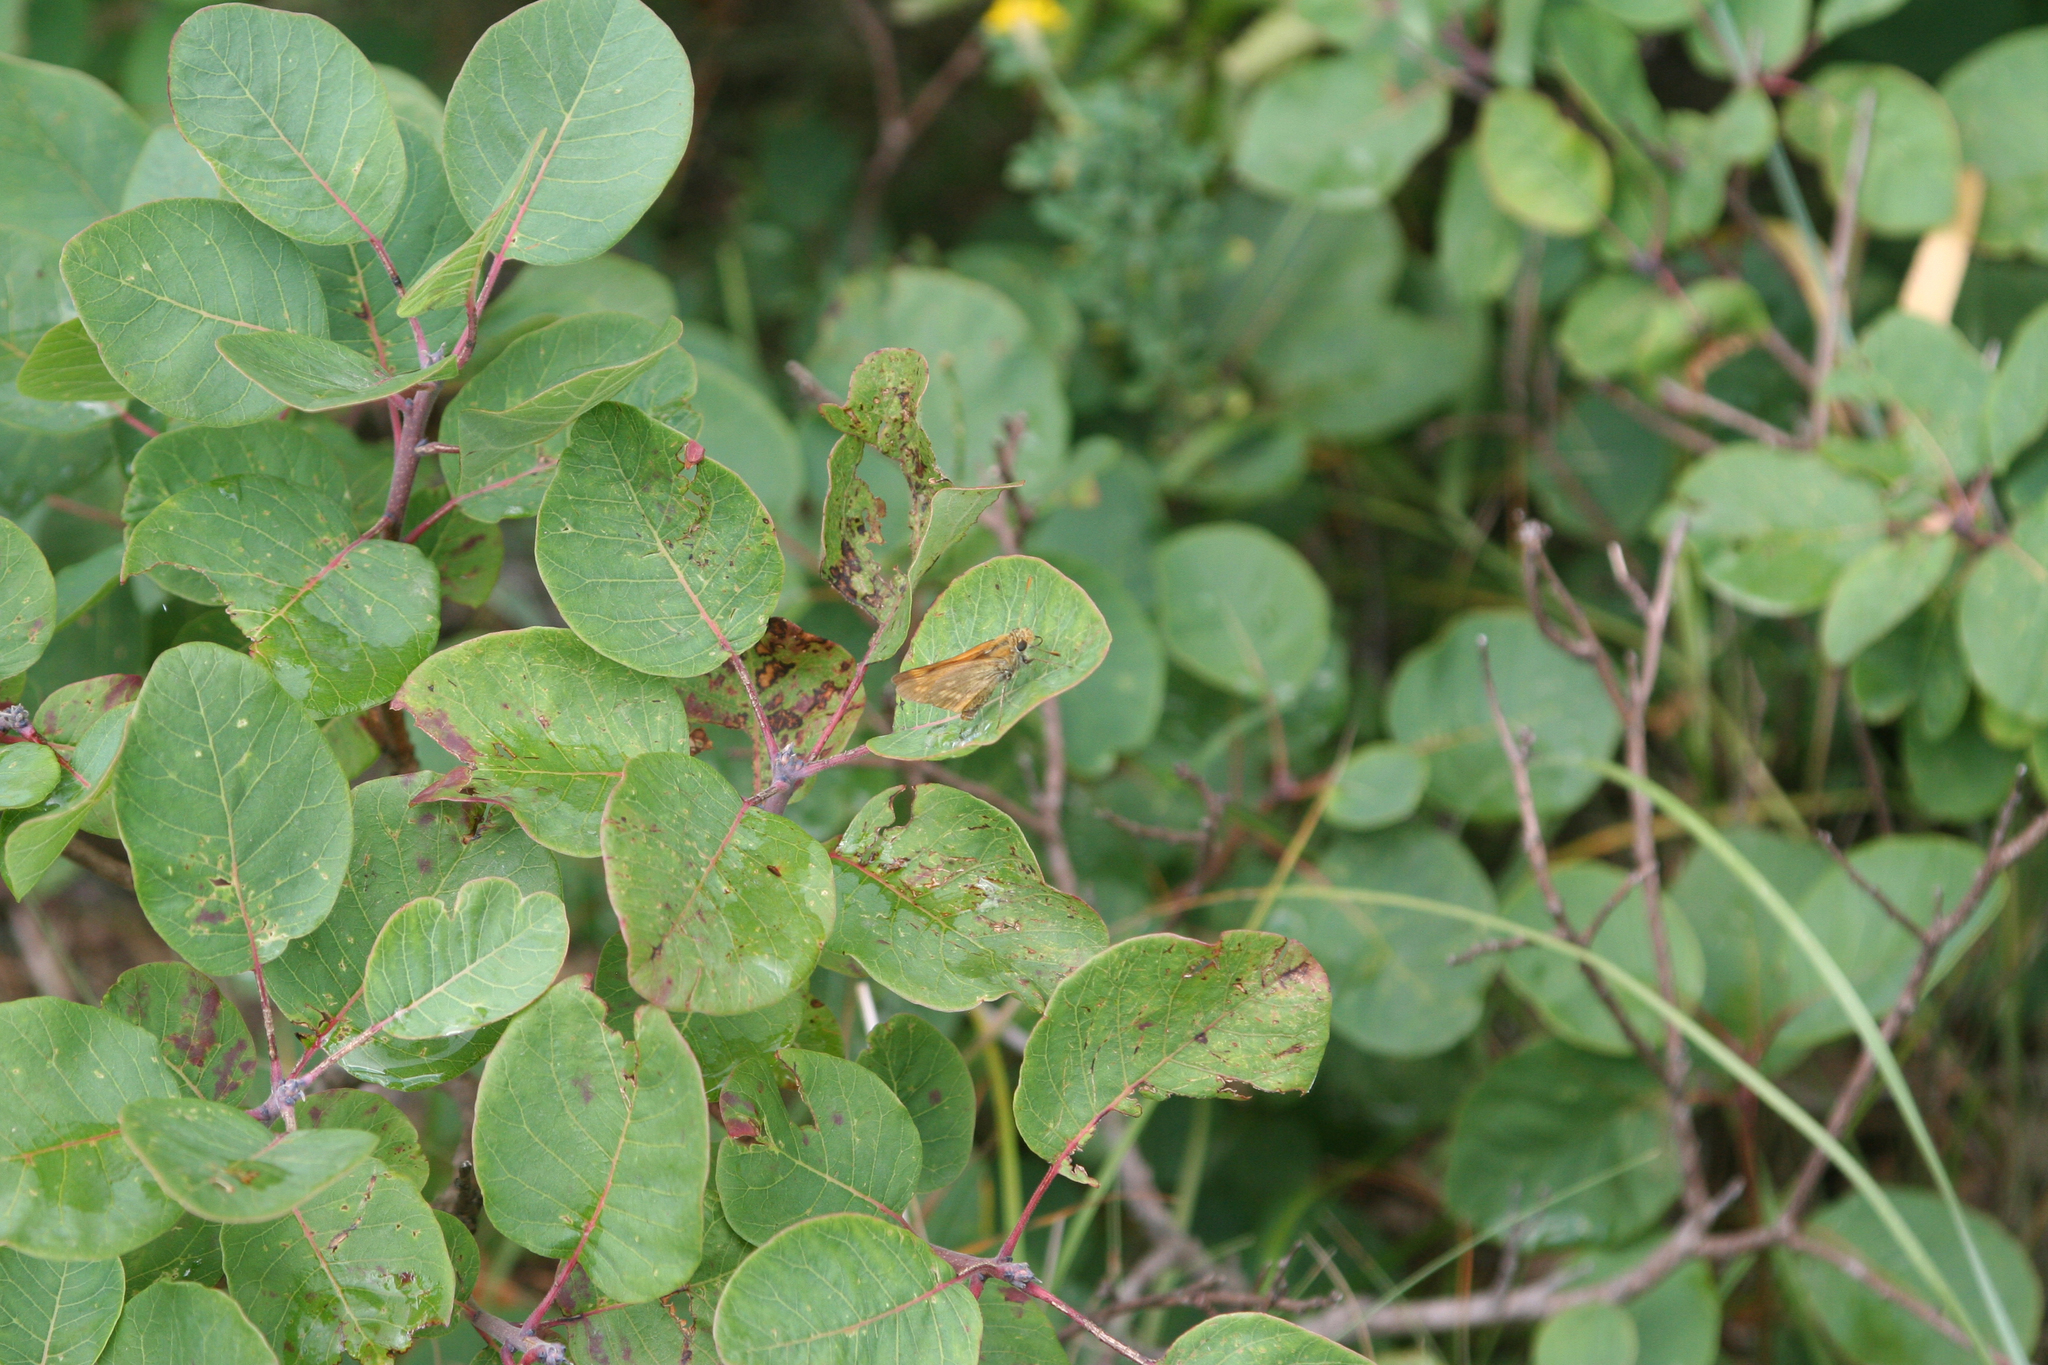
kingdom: Animalia
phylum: Arthropoda
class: Insecta
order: Lepidoptera
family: Hesperiidae
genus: Ochlodes
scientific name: Ochlodes venata
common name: Large skipper
